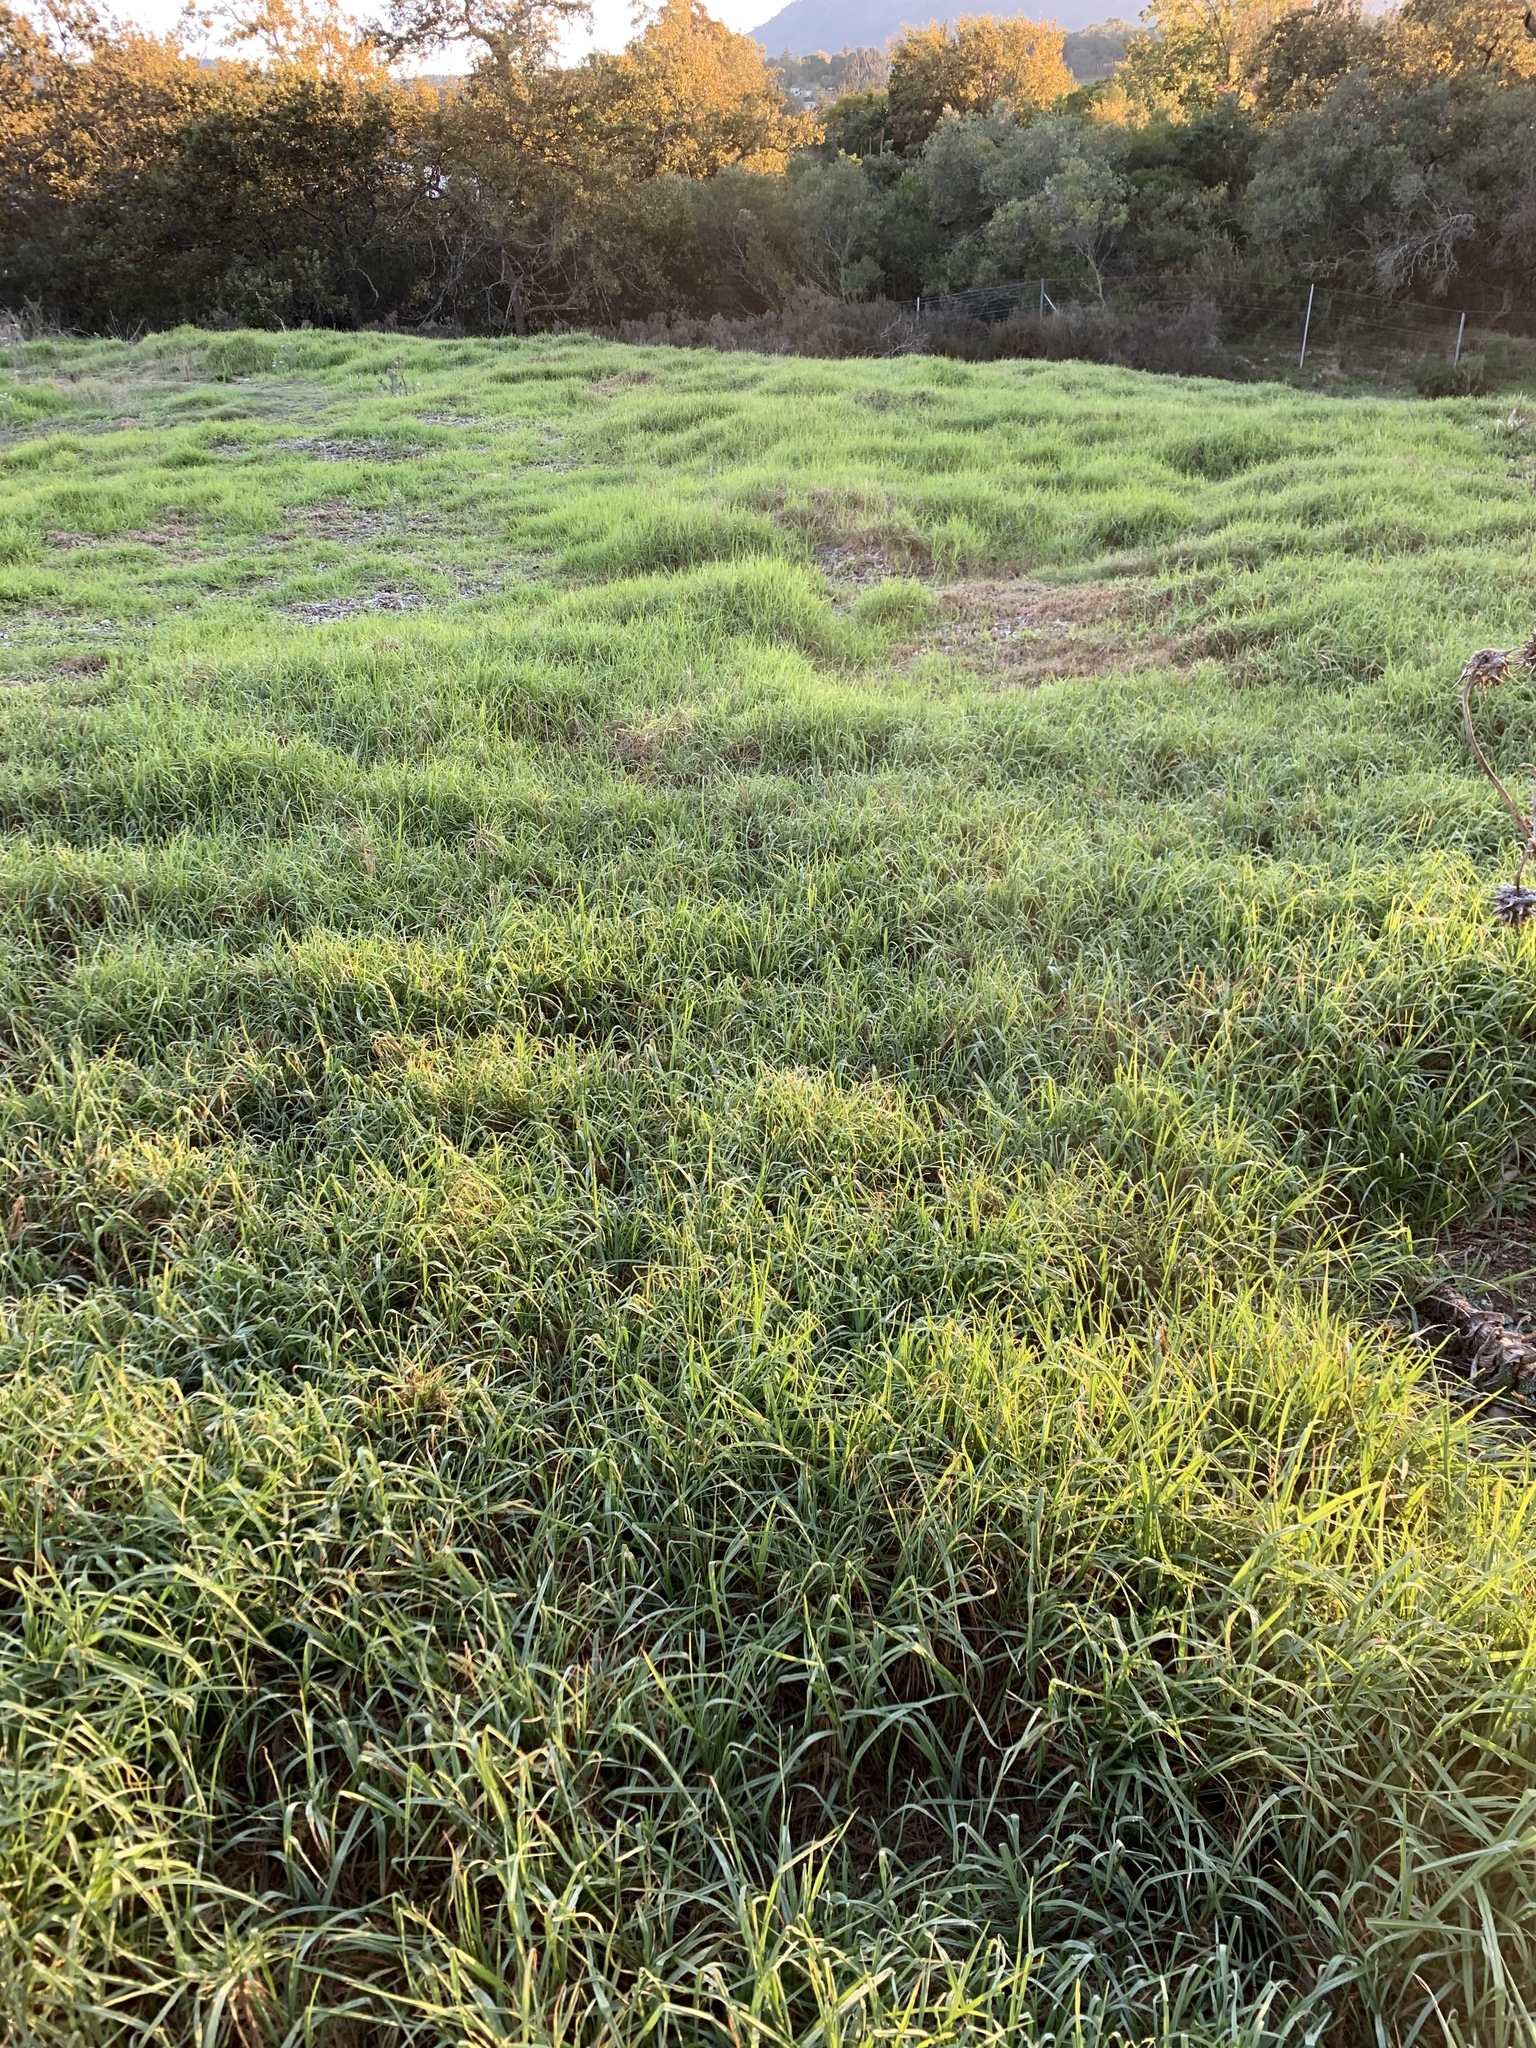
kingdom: Plantae
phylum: Tracheophyta
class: Liliopsida
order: Poales
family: Poaceae
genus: Cenchrus
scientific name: Cenchrus clandestinus
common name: Kikuyugrass
